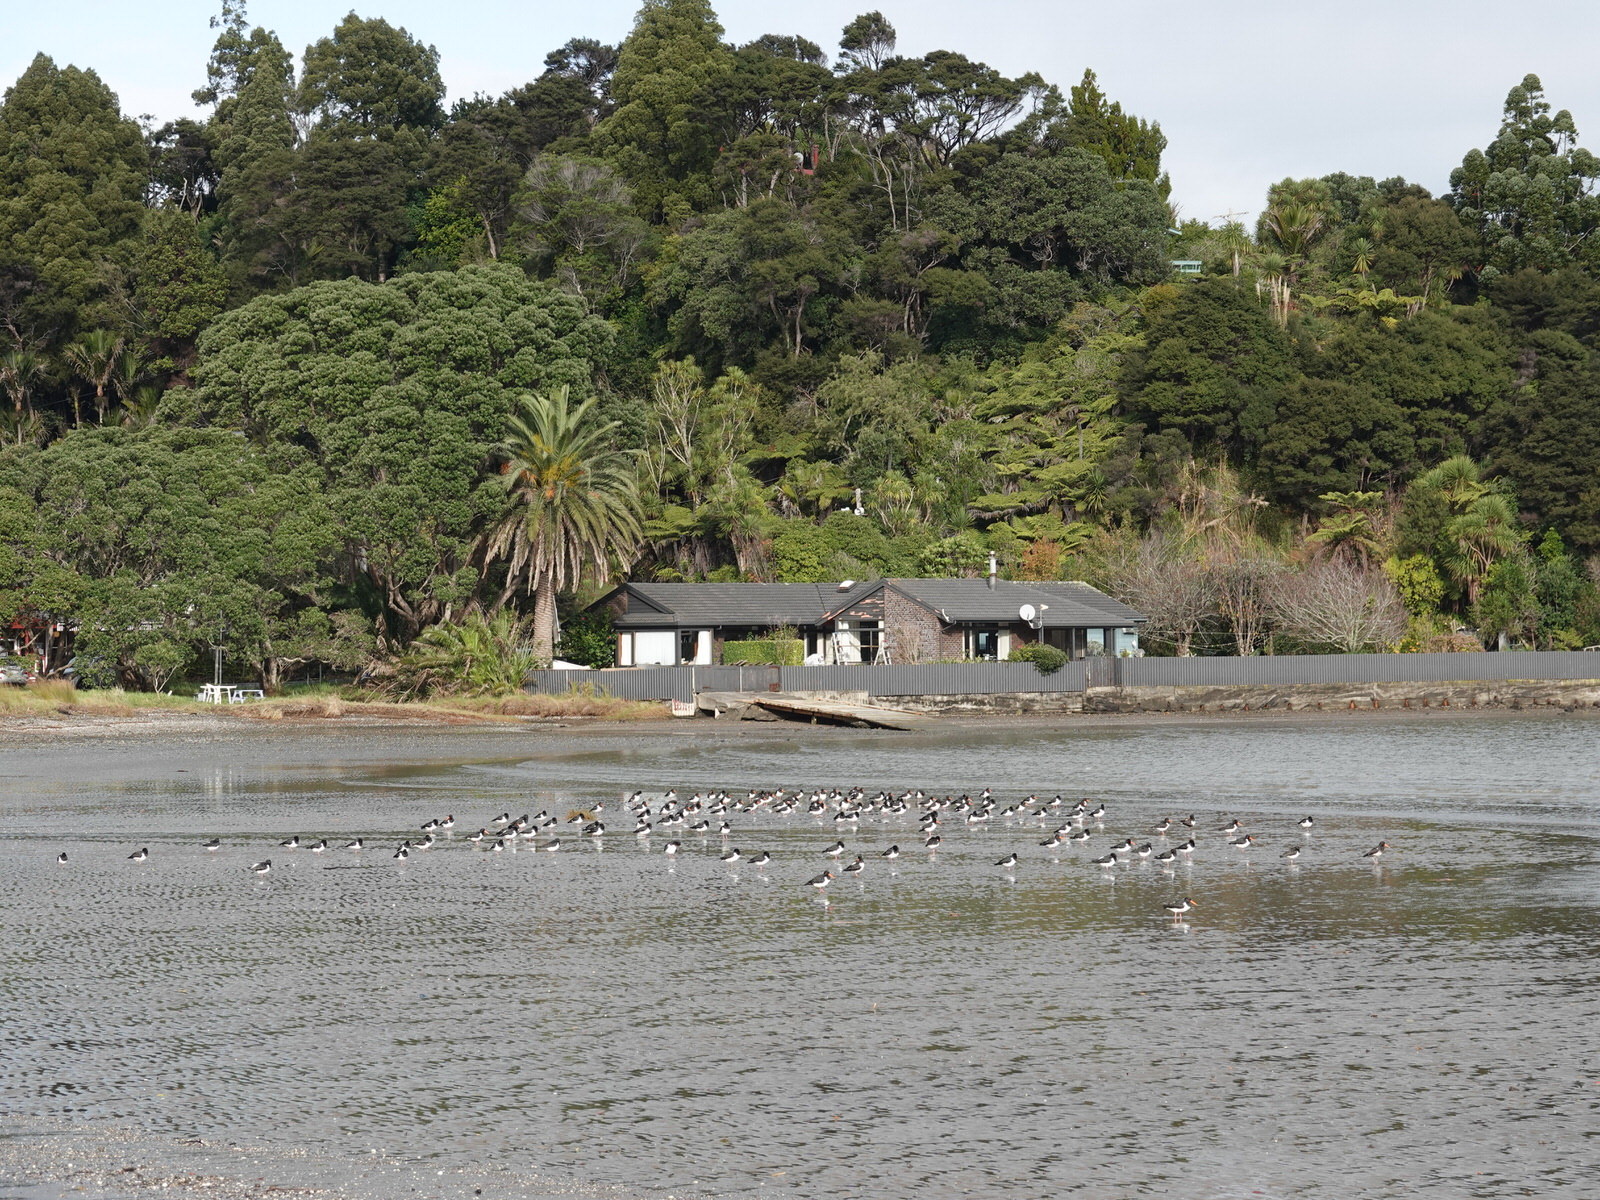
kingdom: Animalia
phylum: Chordata
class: Aves
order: Charadriiformes
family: Haematopodidae
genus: Haematopus
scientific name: Haematopus finschi
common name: South island oystercatcher
